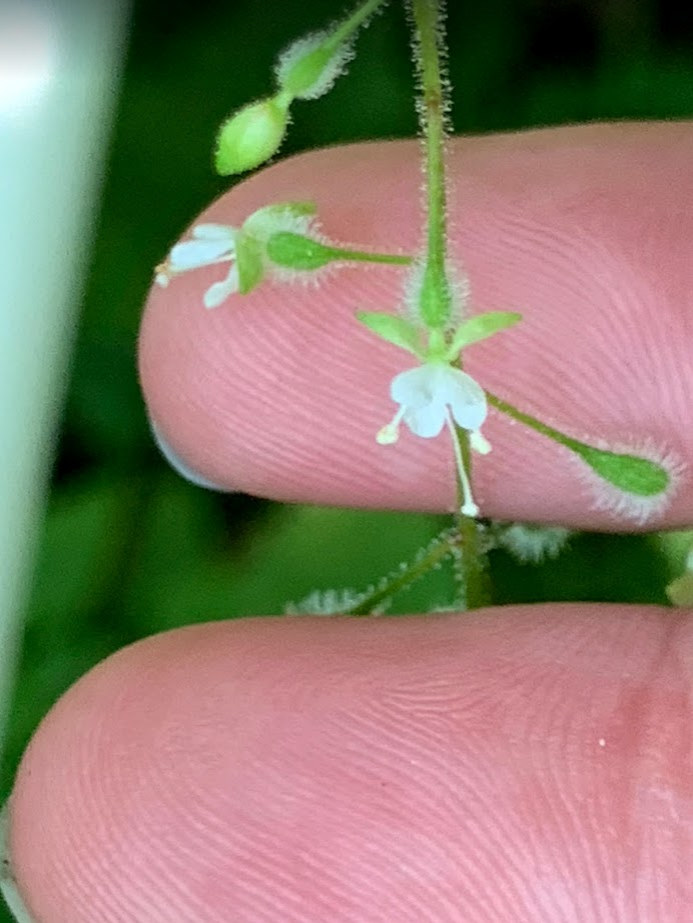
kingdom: Plantae
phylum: Tracheophyta
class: Magnoliopsida
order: Myrtales
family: Onagraceae
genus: Circaea
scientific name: Circaea canadensis
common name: Broad-leaved enchanter's nightshade
